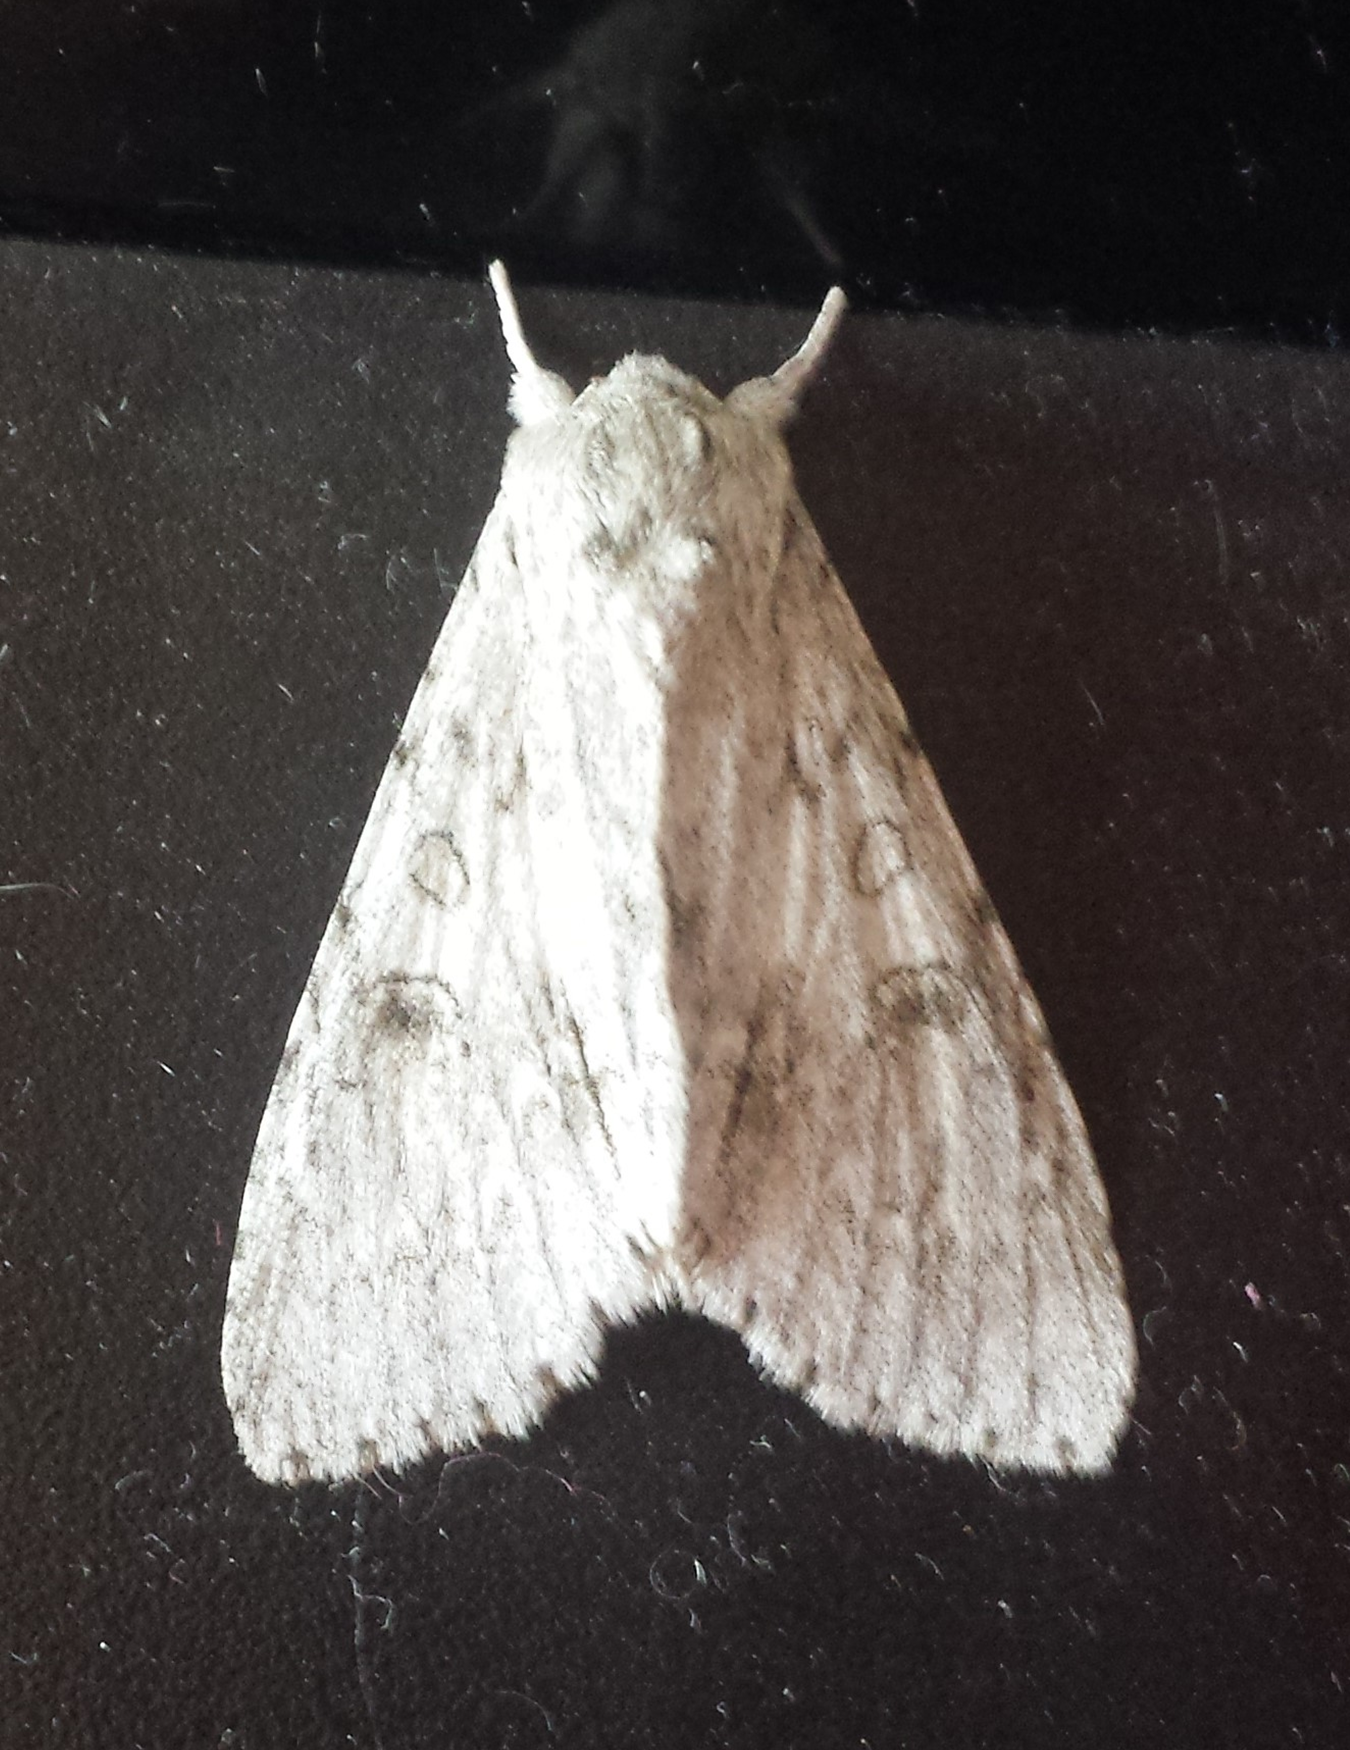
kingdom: Animalia
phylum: Arthropoda
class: Insecta
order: Lepidoptera
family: Noctuidae
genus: Acronicta
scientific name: Acronicta americana
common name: American dagger
